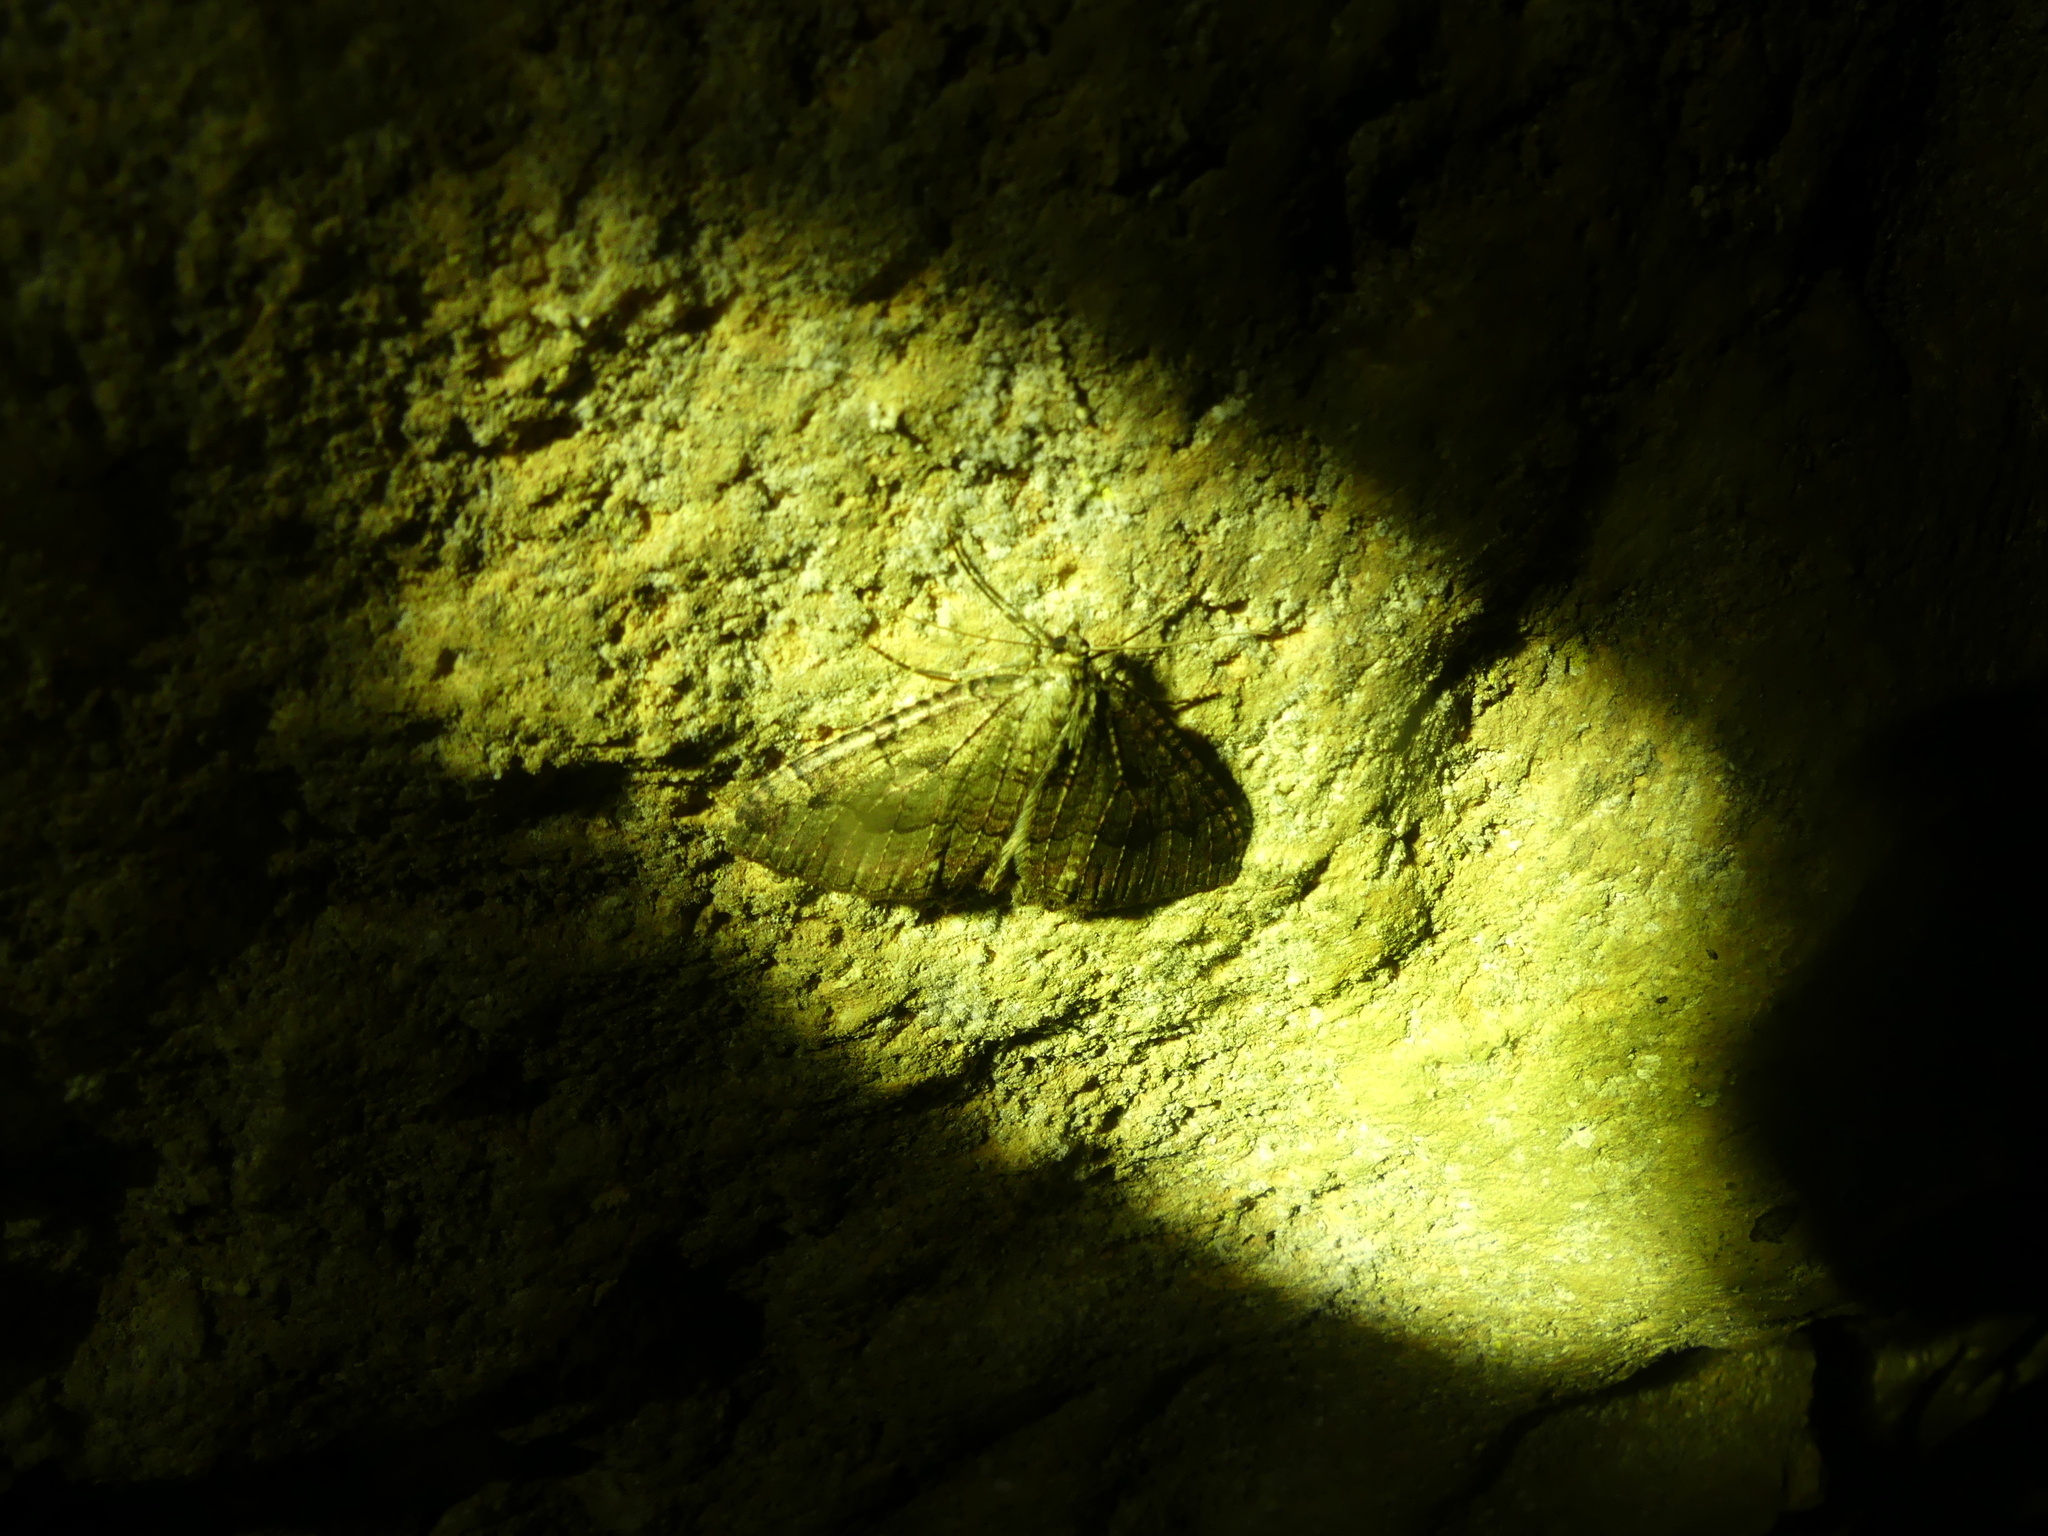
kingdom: Animalia
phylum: Arthropoda
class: Insecta
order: Lepidoptera
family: Geometridae
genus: Triphosa
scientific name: Triphosa dubitata
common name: Tissue
